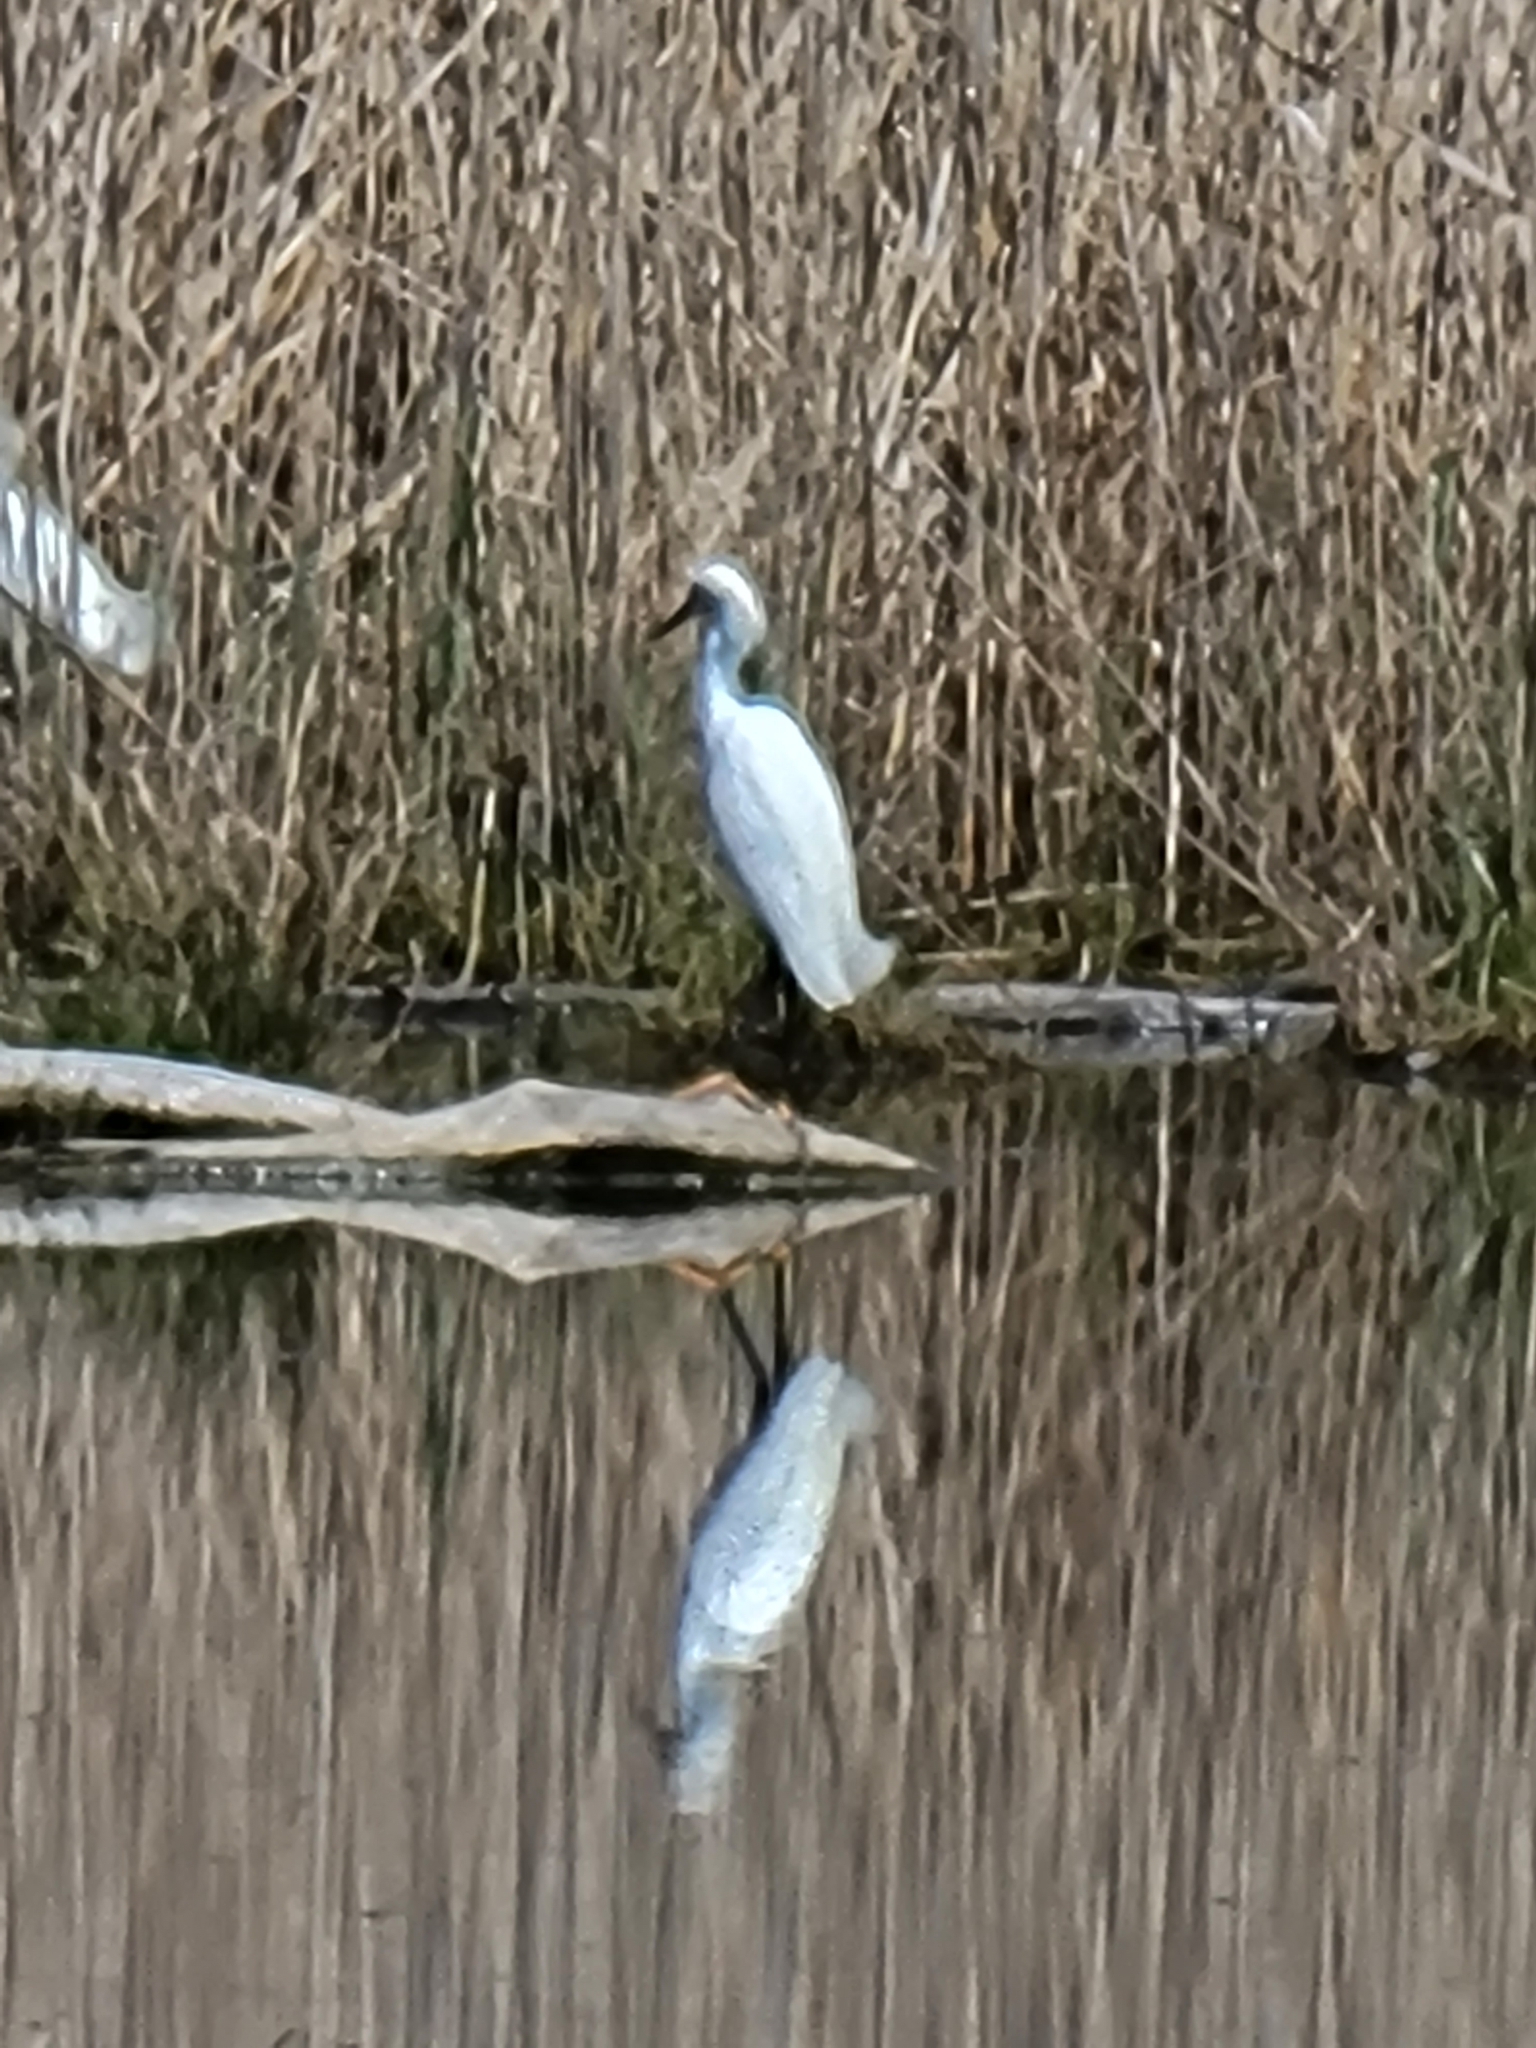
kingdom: Animalia
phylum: Chordata
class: Aves
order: Pelecaniformes
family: Ardeidae
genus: Egretta
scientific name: Egretta thula
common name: Snowy egret
